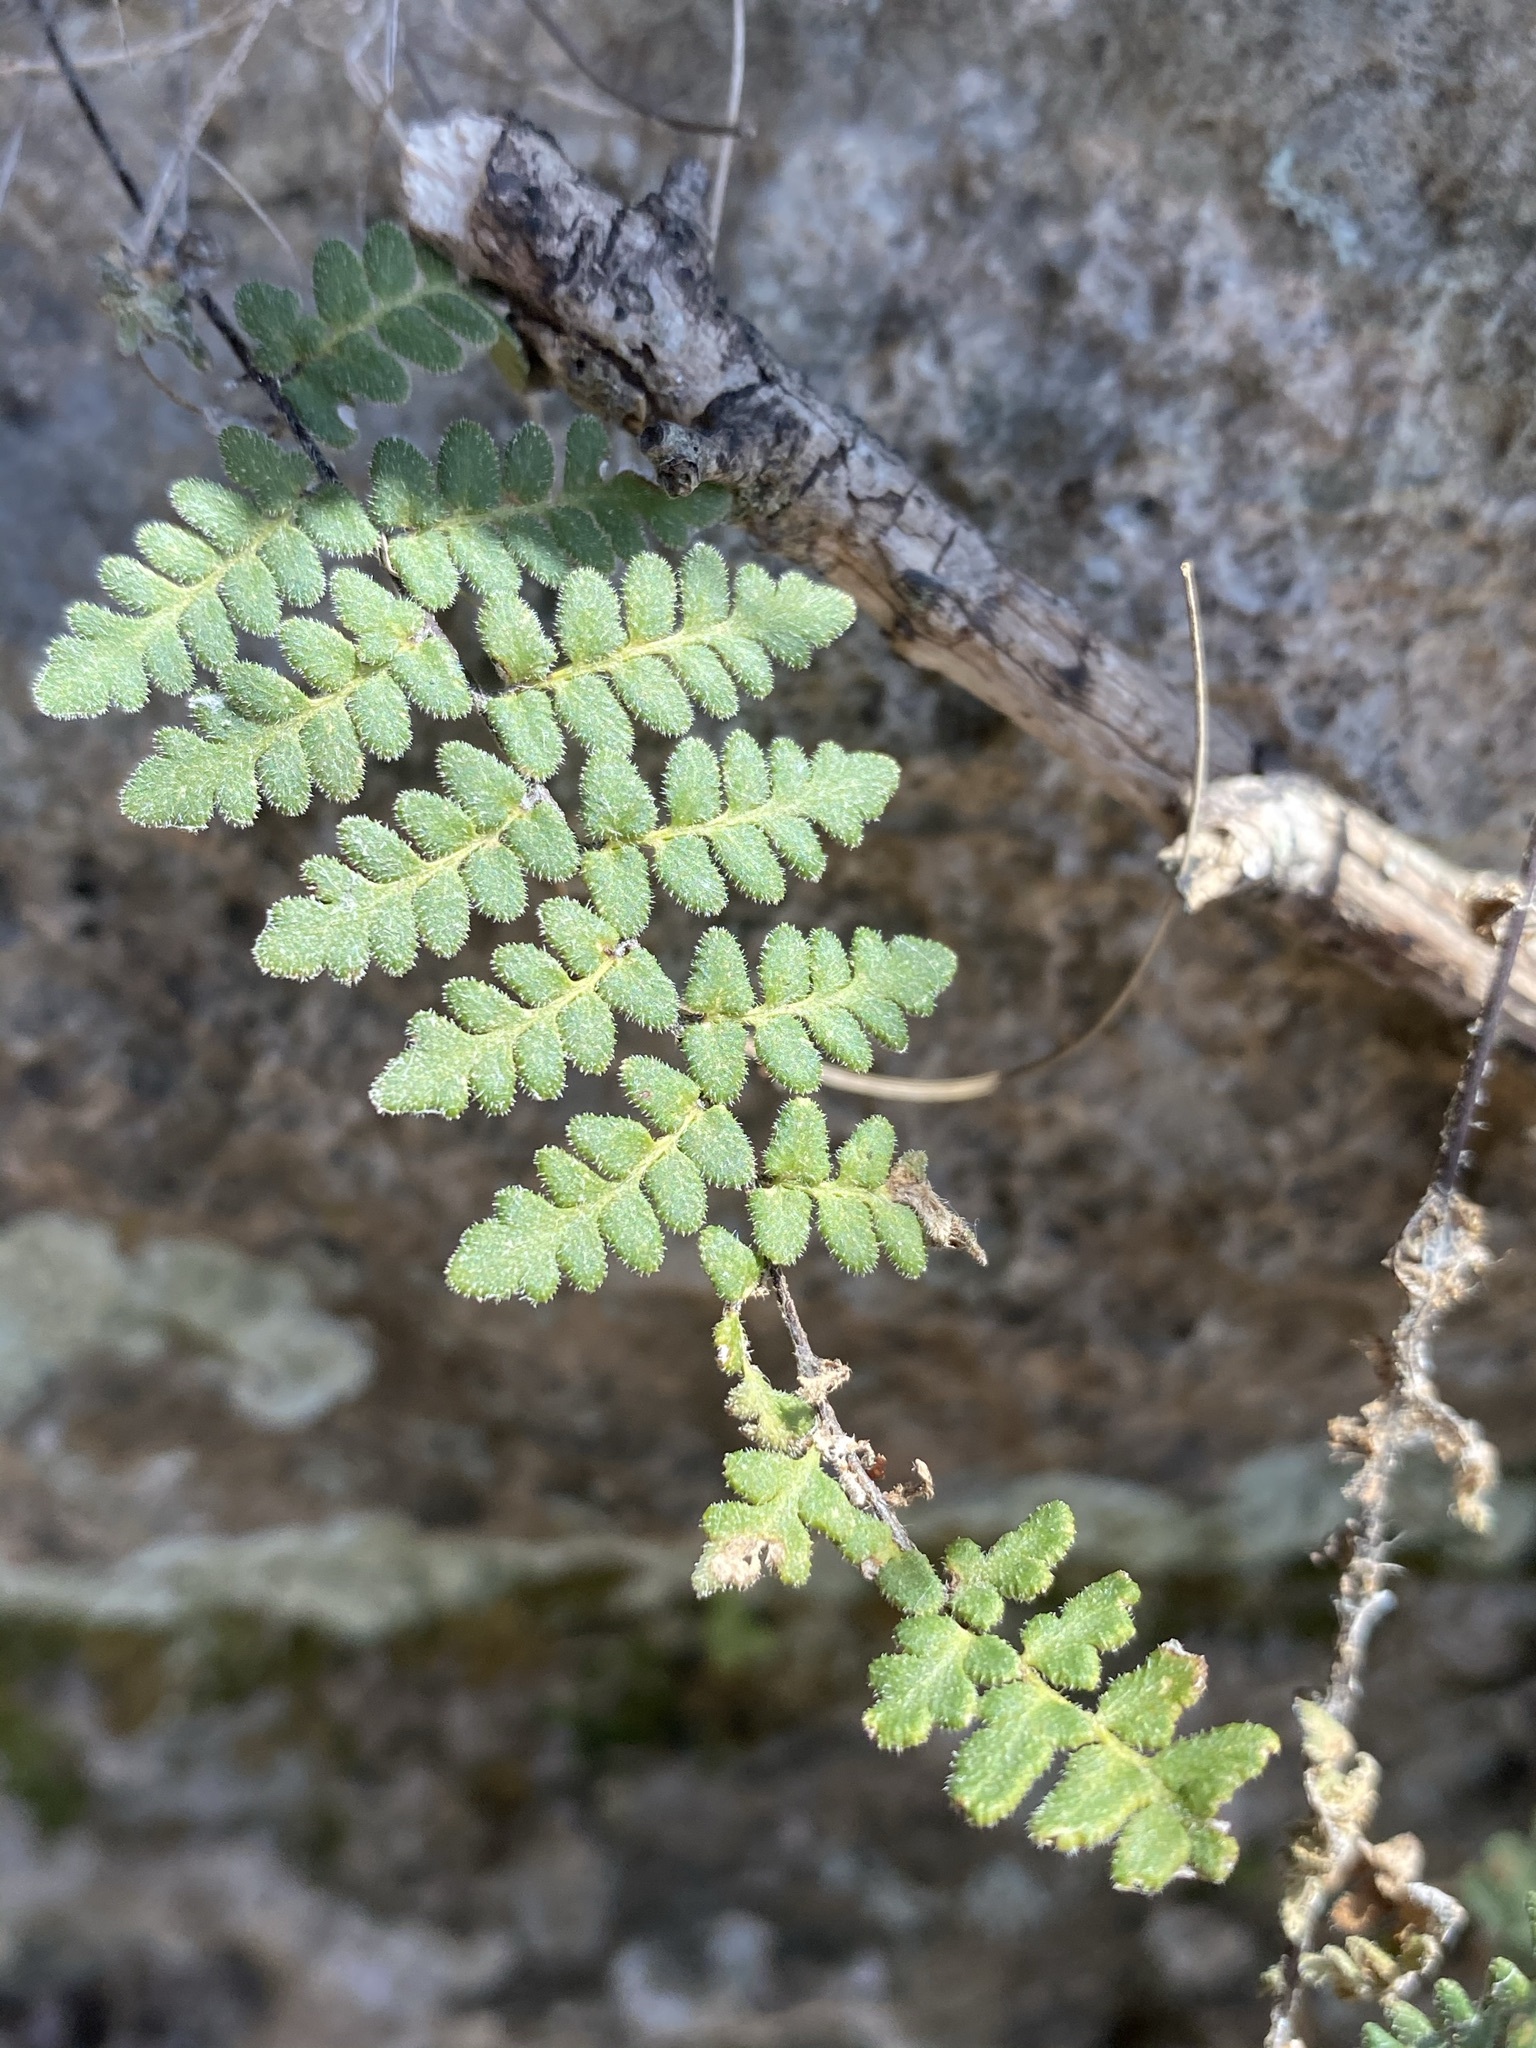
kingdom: Plantae
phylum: Tracheophyta
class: Polypodiopsida
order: Polypodiales
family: Pteridaceae
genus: Myriopteris
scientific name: Myriopteris scabra
